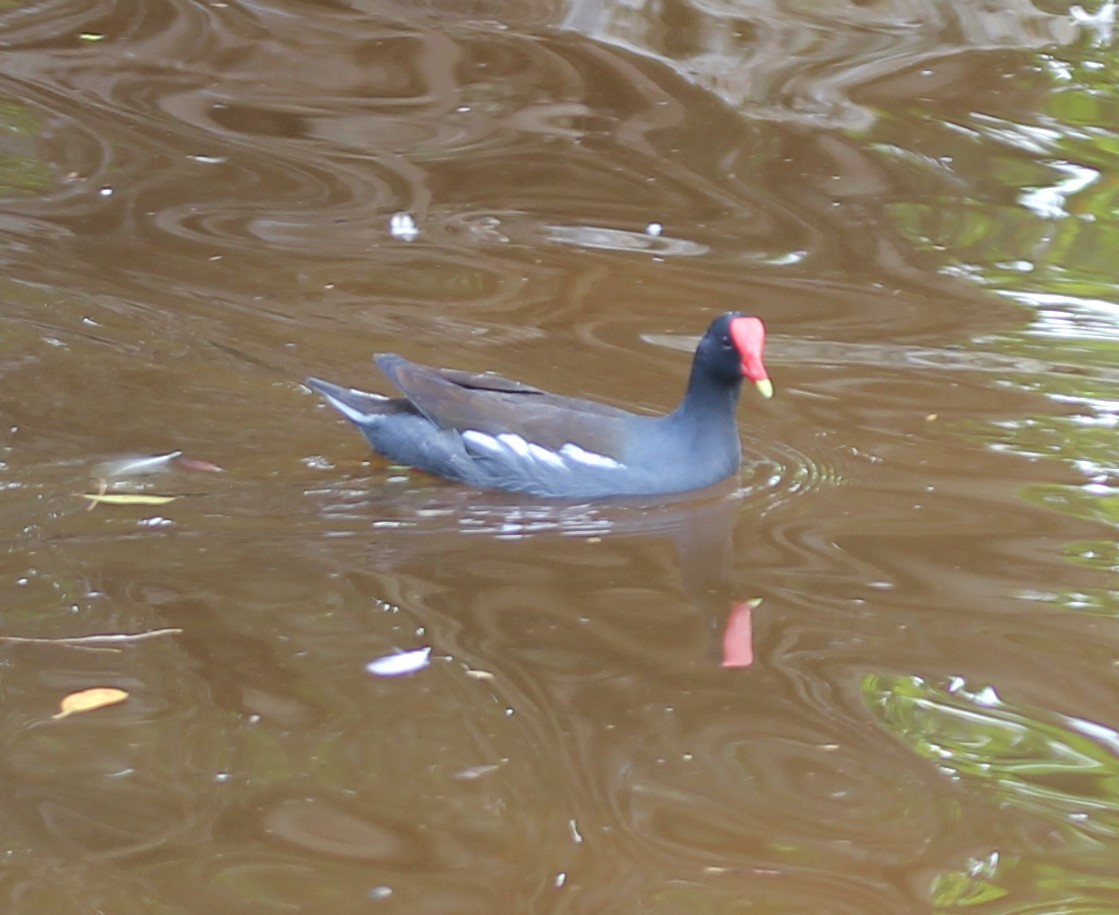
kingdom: Animalia
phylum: Chordata
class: Aves
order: Gruiformes
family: Rallidae
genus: Gallinula
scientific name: Gallinula chloropus
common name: Common moorhen
